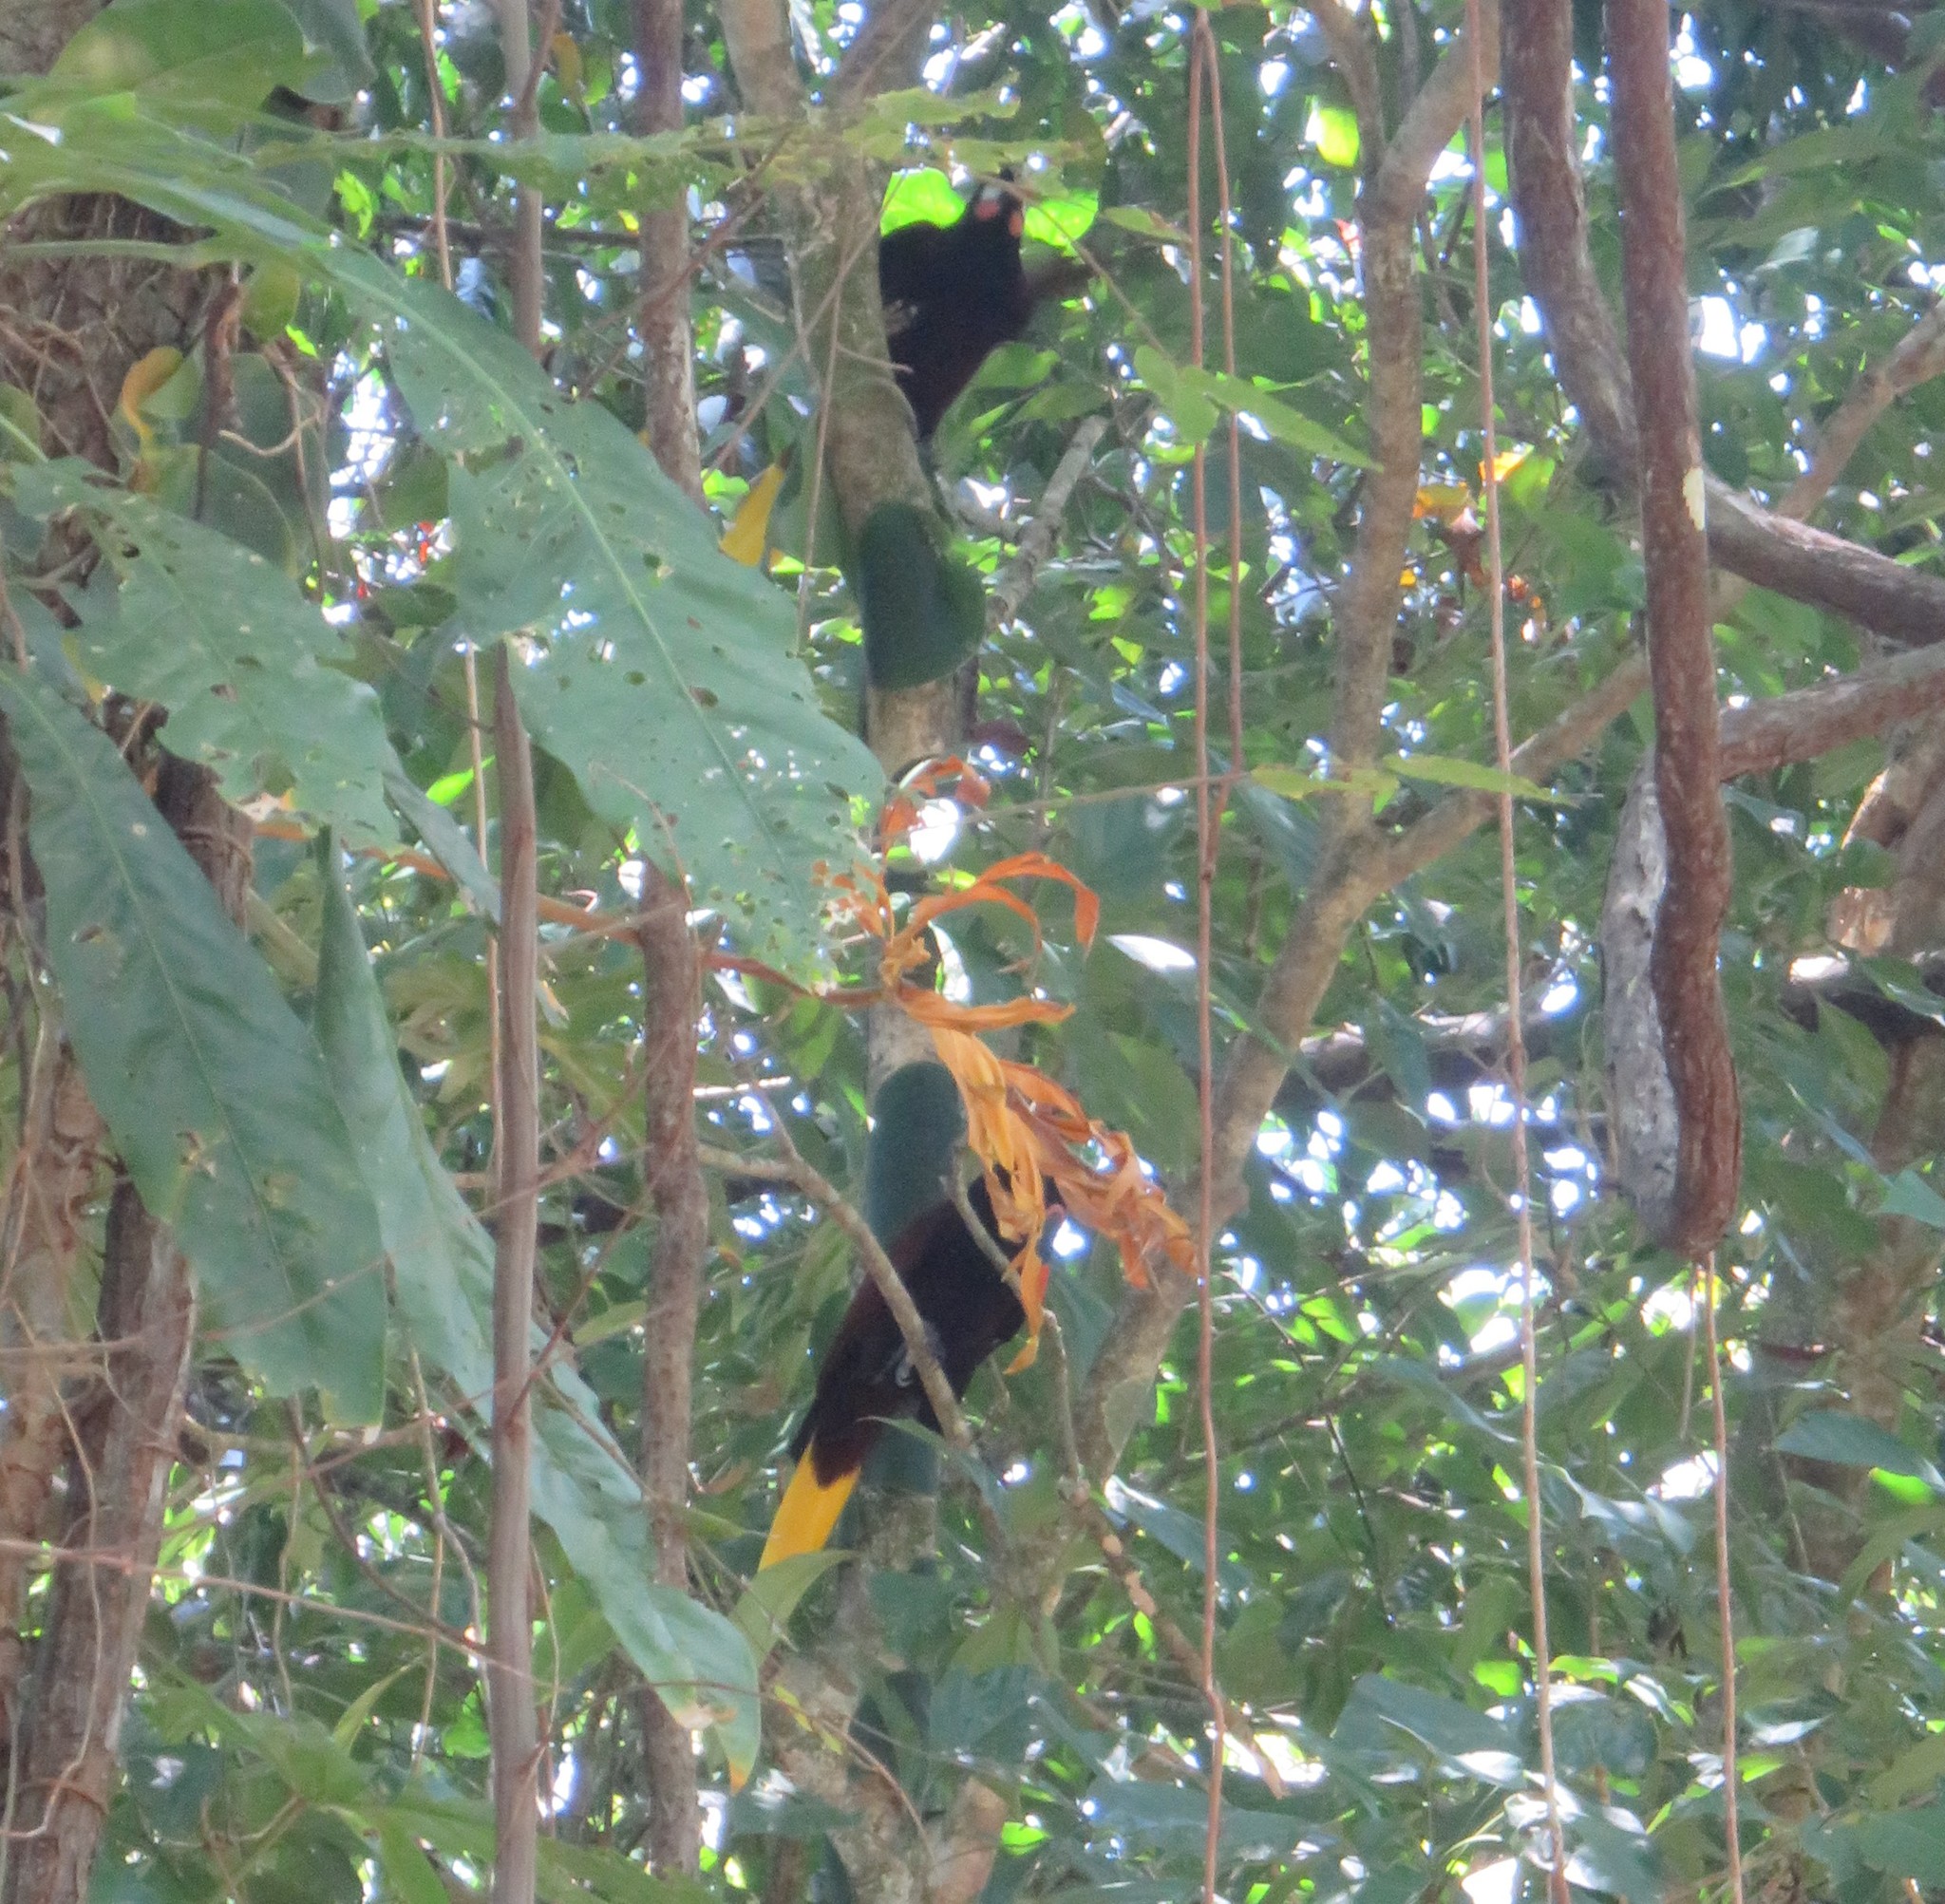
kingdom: Animalia
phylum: Chordata
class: Aves
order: Passeriformes
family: Icteridae
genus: Psarocolius
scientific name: Psarocolius montezuma
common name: Montezuma oropendola
